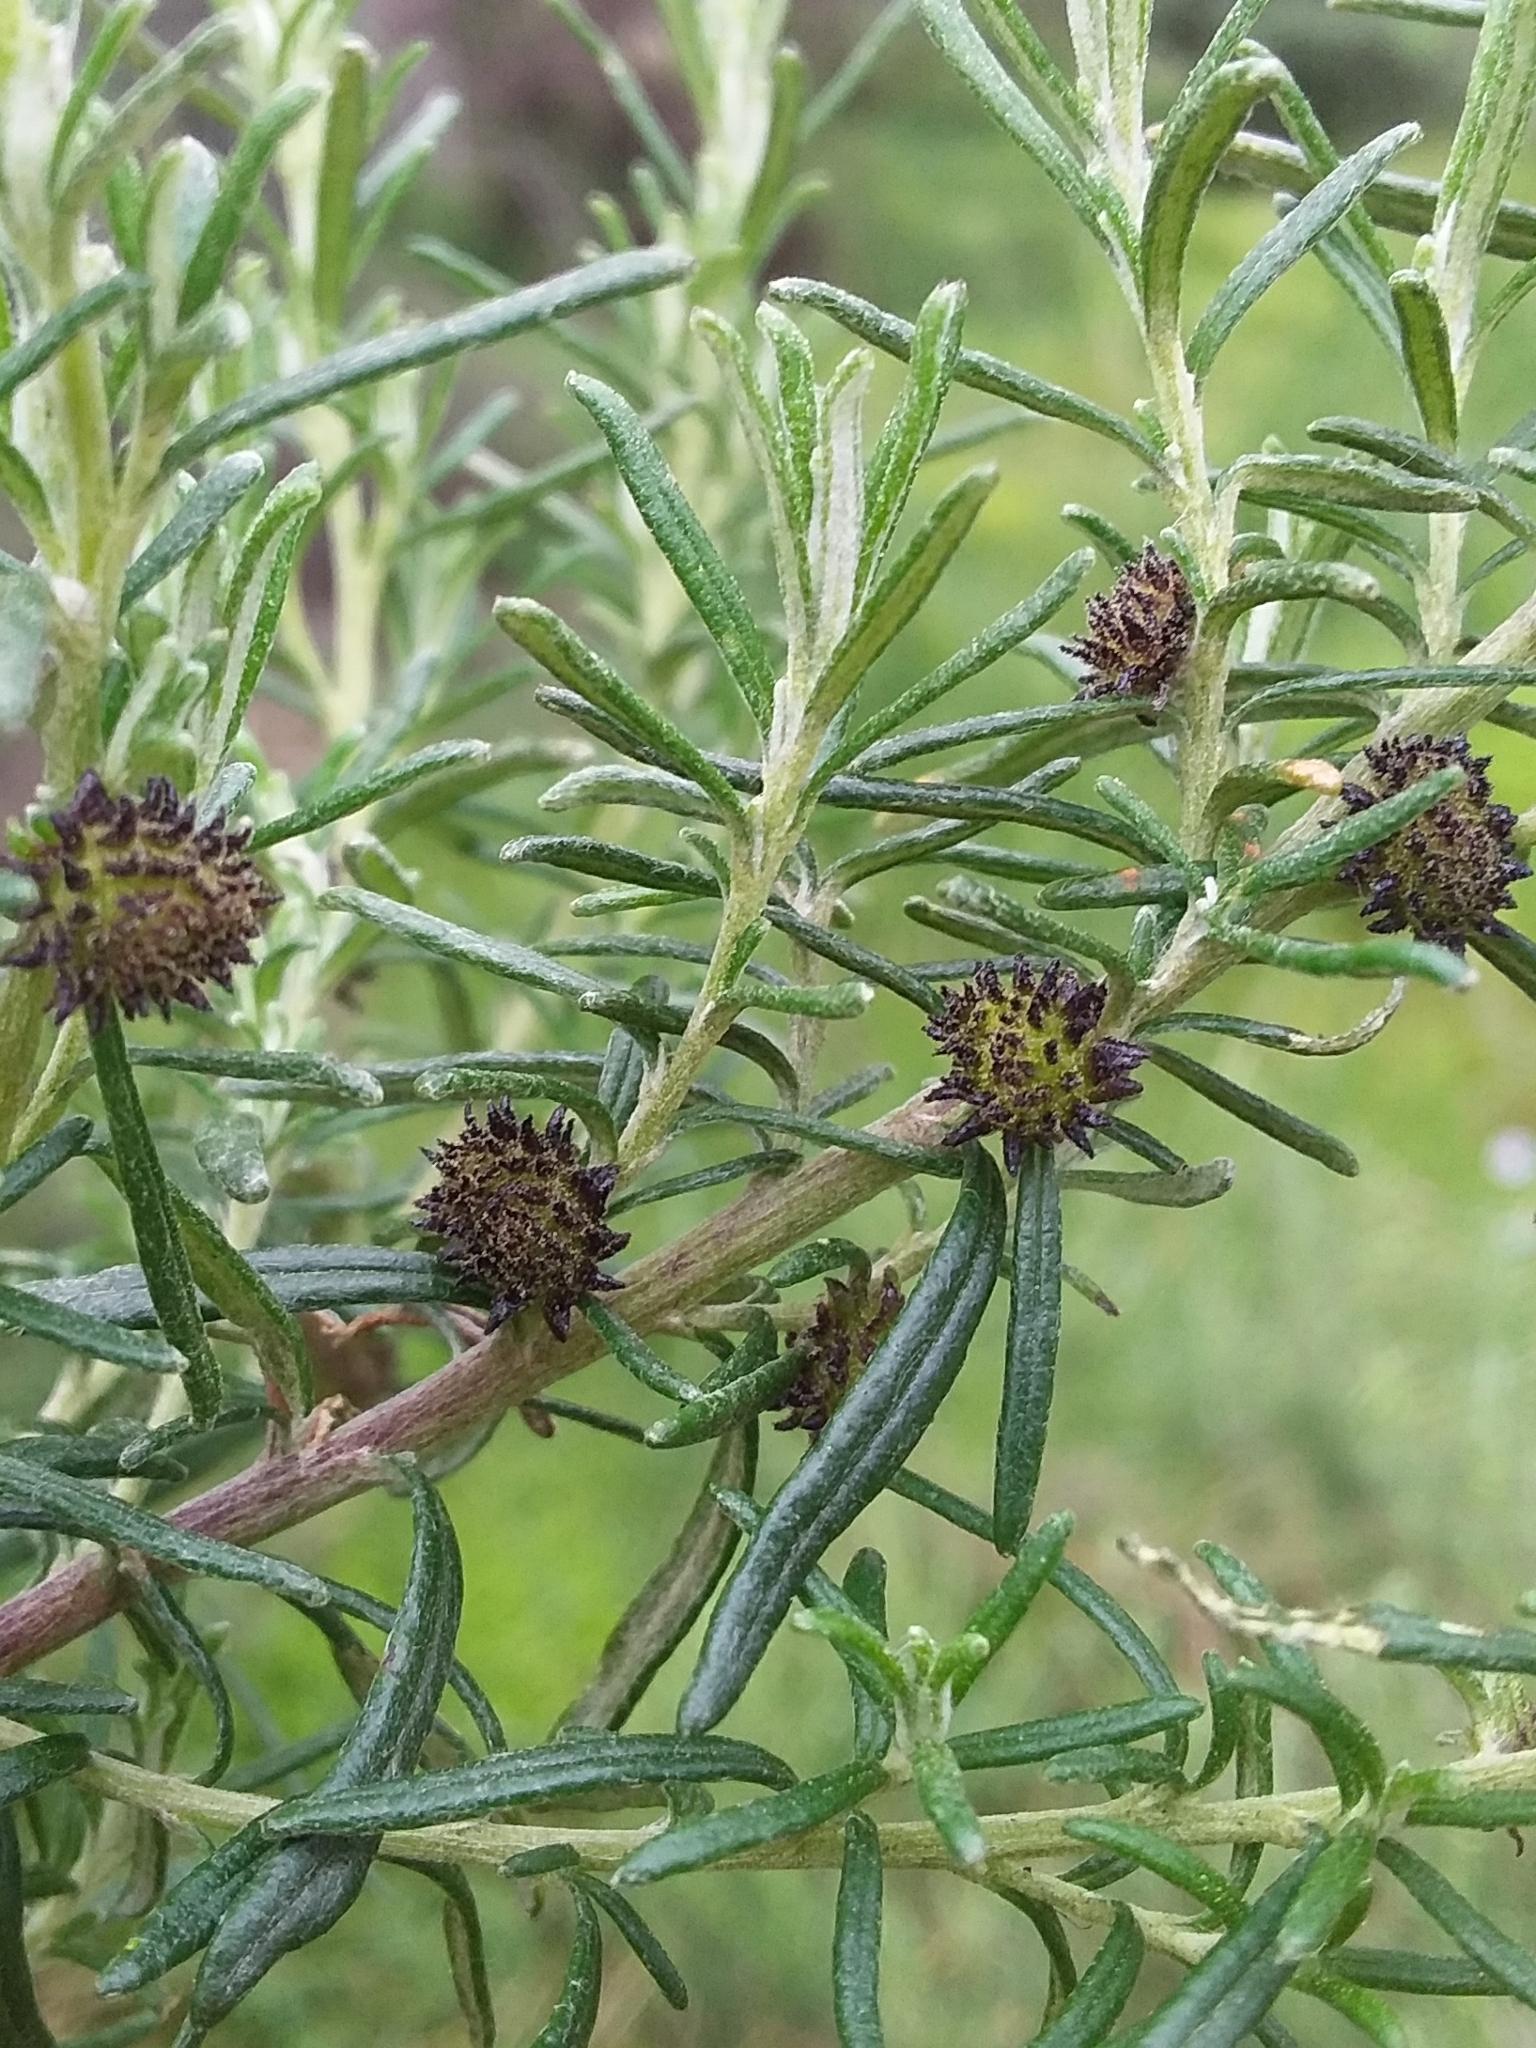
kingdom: Animalia
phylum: Arthropoda
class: Insecta
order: Diptera
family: Cecidomyiidae
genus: Trigonomyia
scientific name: Trigonomyia ananas
